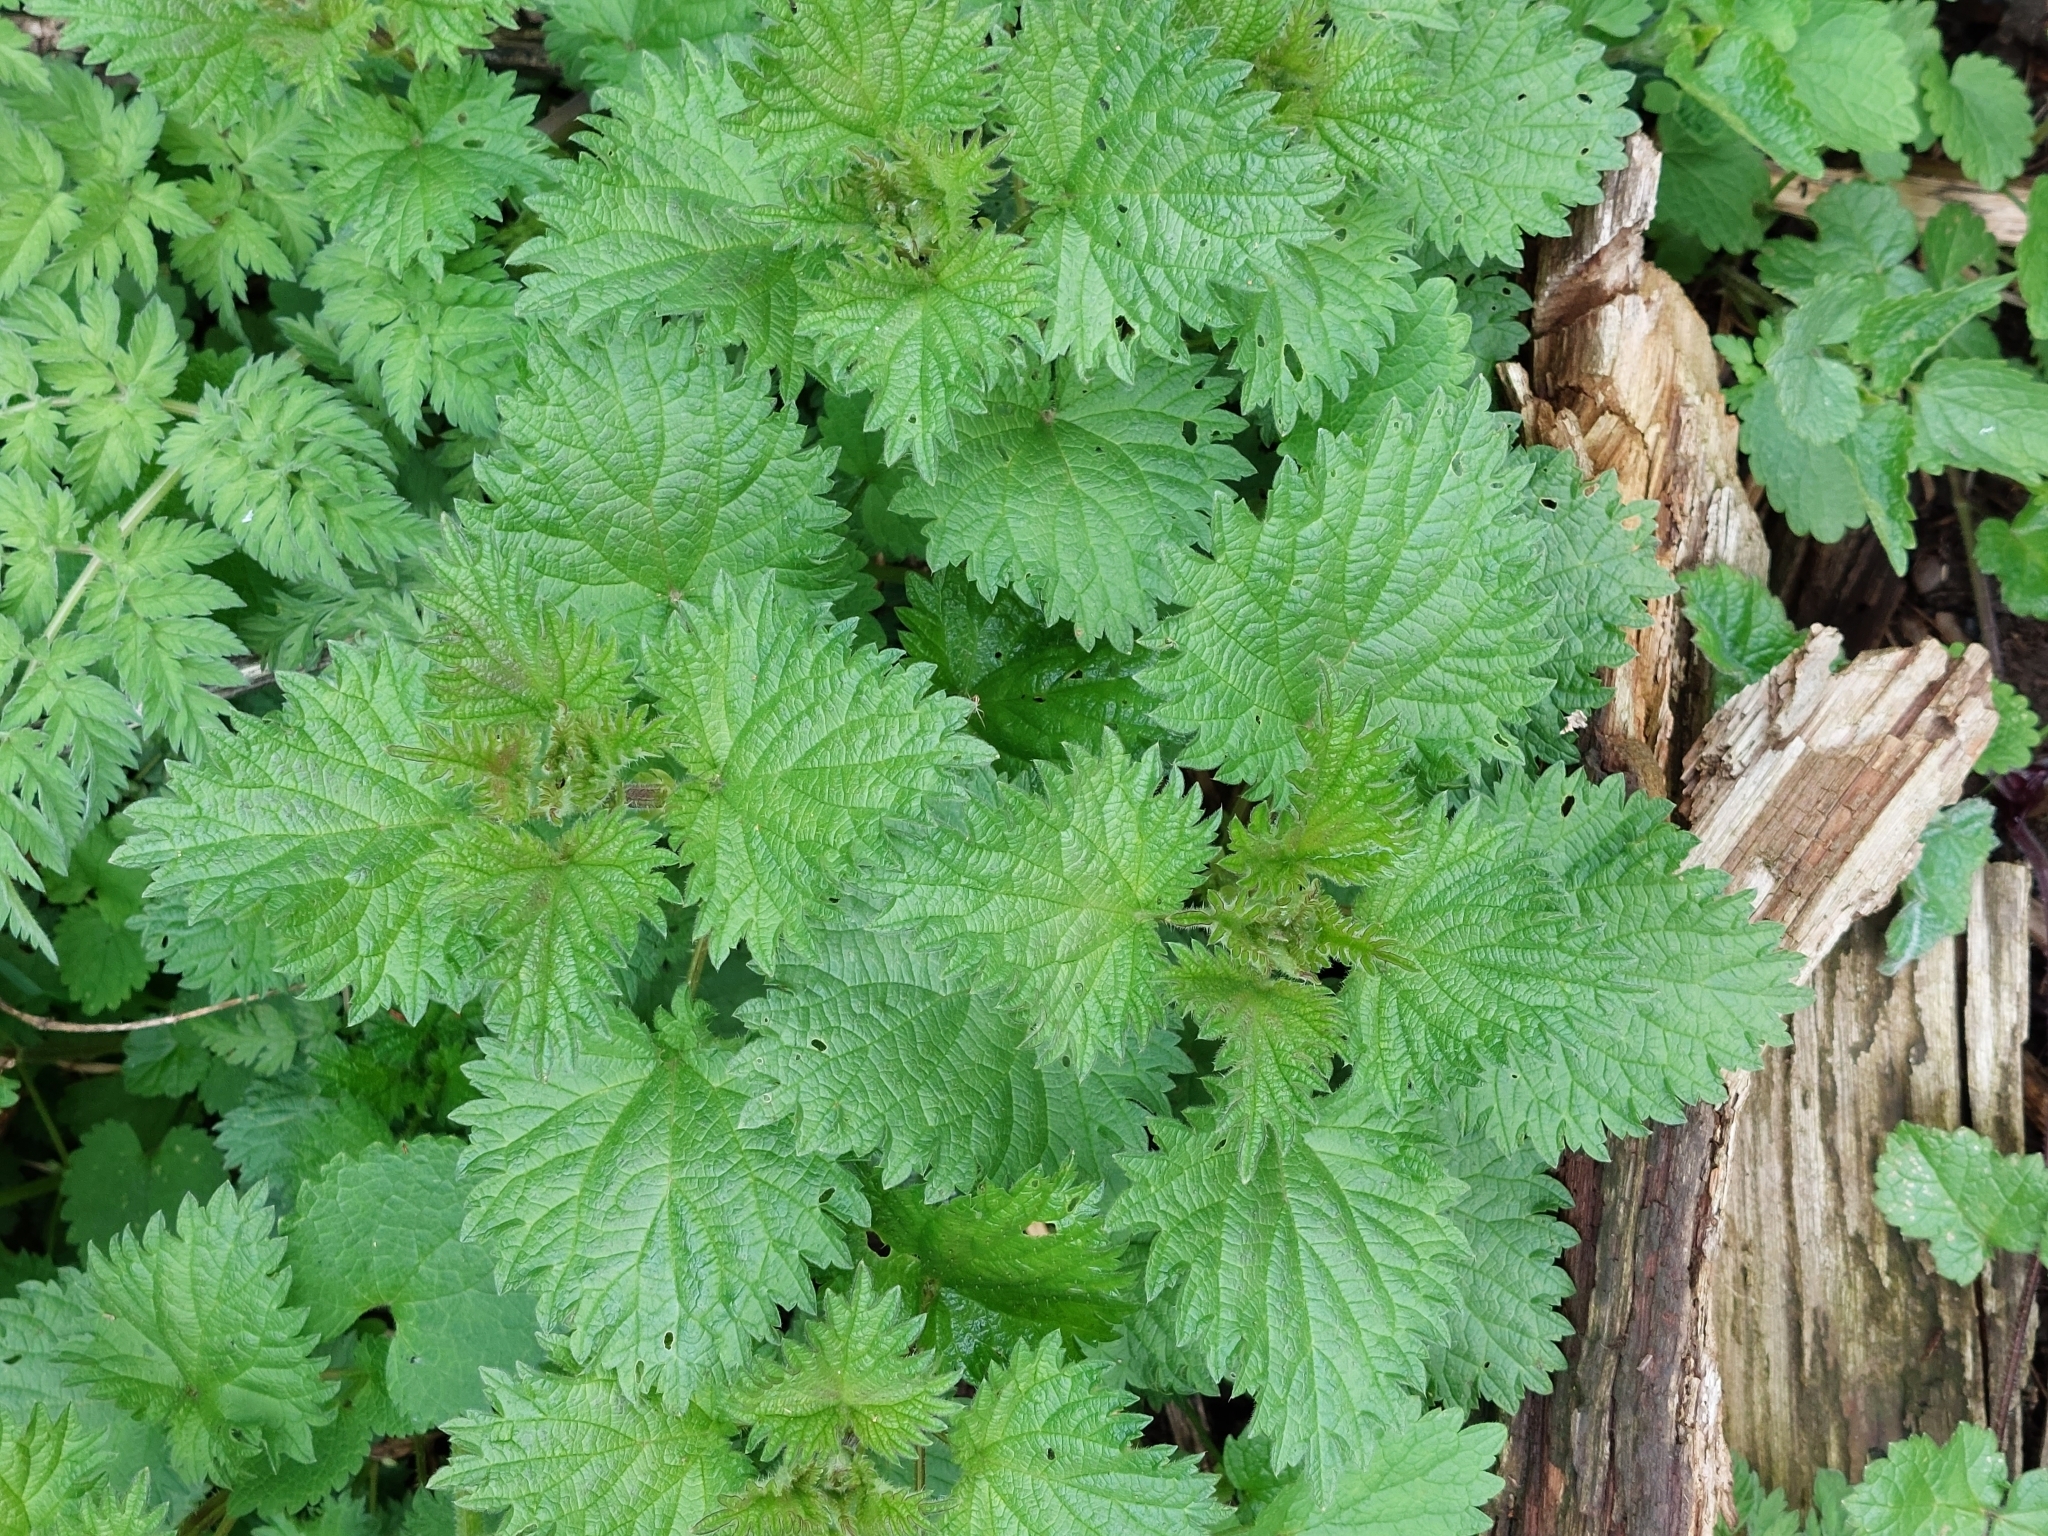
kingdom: Plantae
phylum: Tracheophyta
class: Magnoliopsida
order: Rosales
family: Urticaceae
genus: Urtica
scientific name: Urtica dioica
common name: Common nettle
